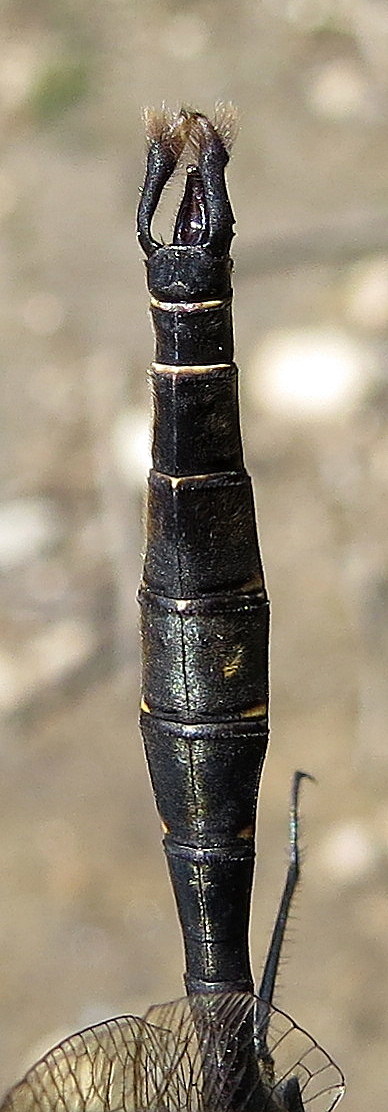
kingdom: Animalia
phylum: Arthropoda
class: Insecta
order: Odonata
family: Corduliidae
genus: Somatochlora
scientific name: Somatochlora walshii
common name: Brush-tipped emerald
